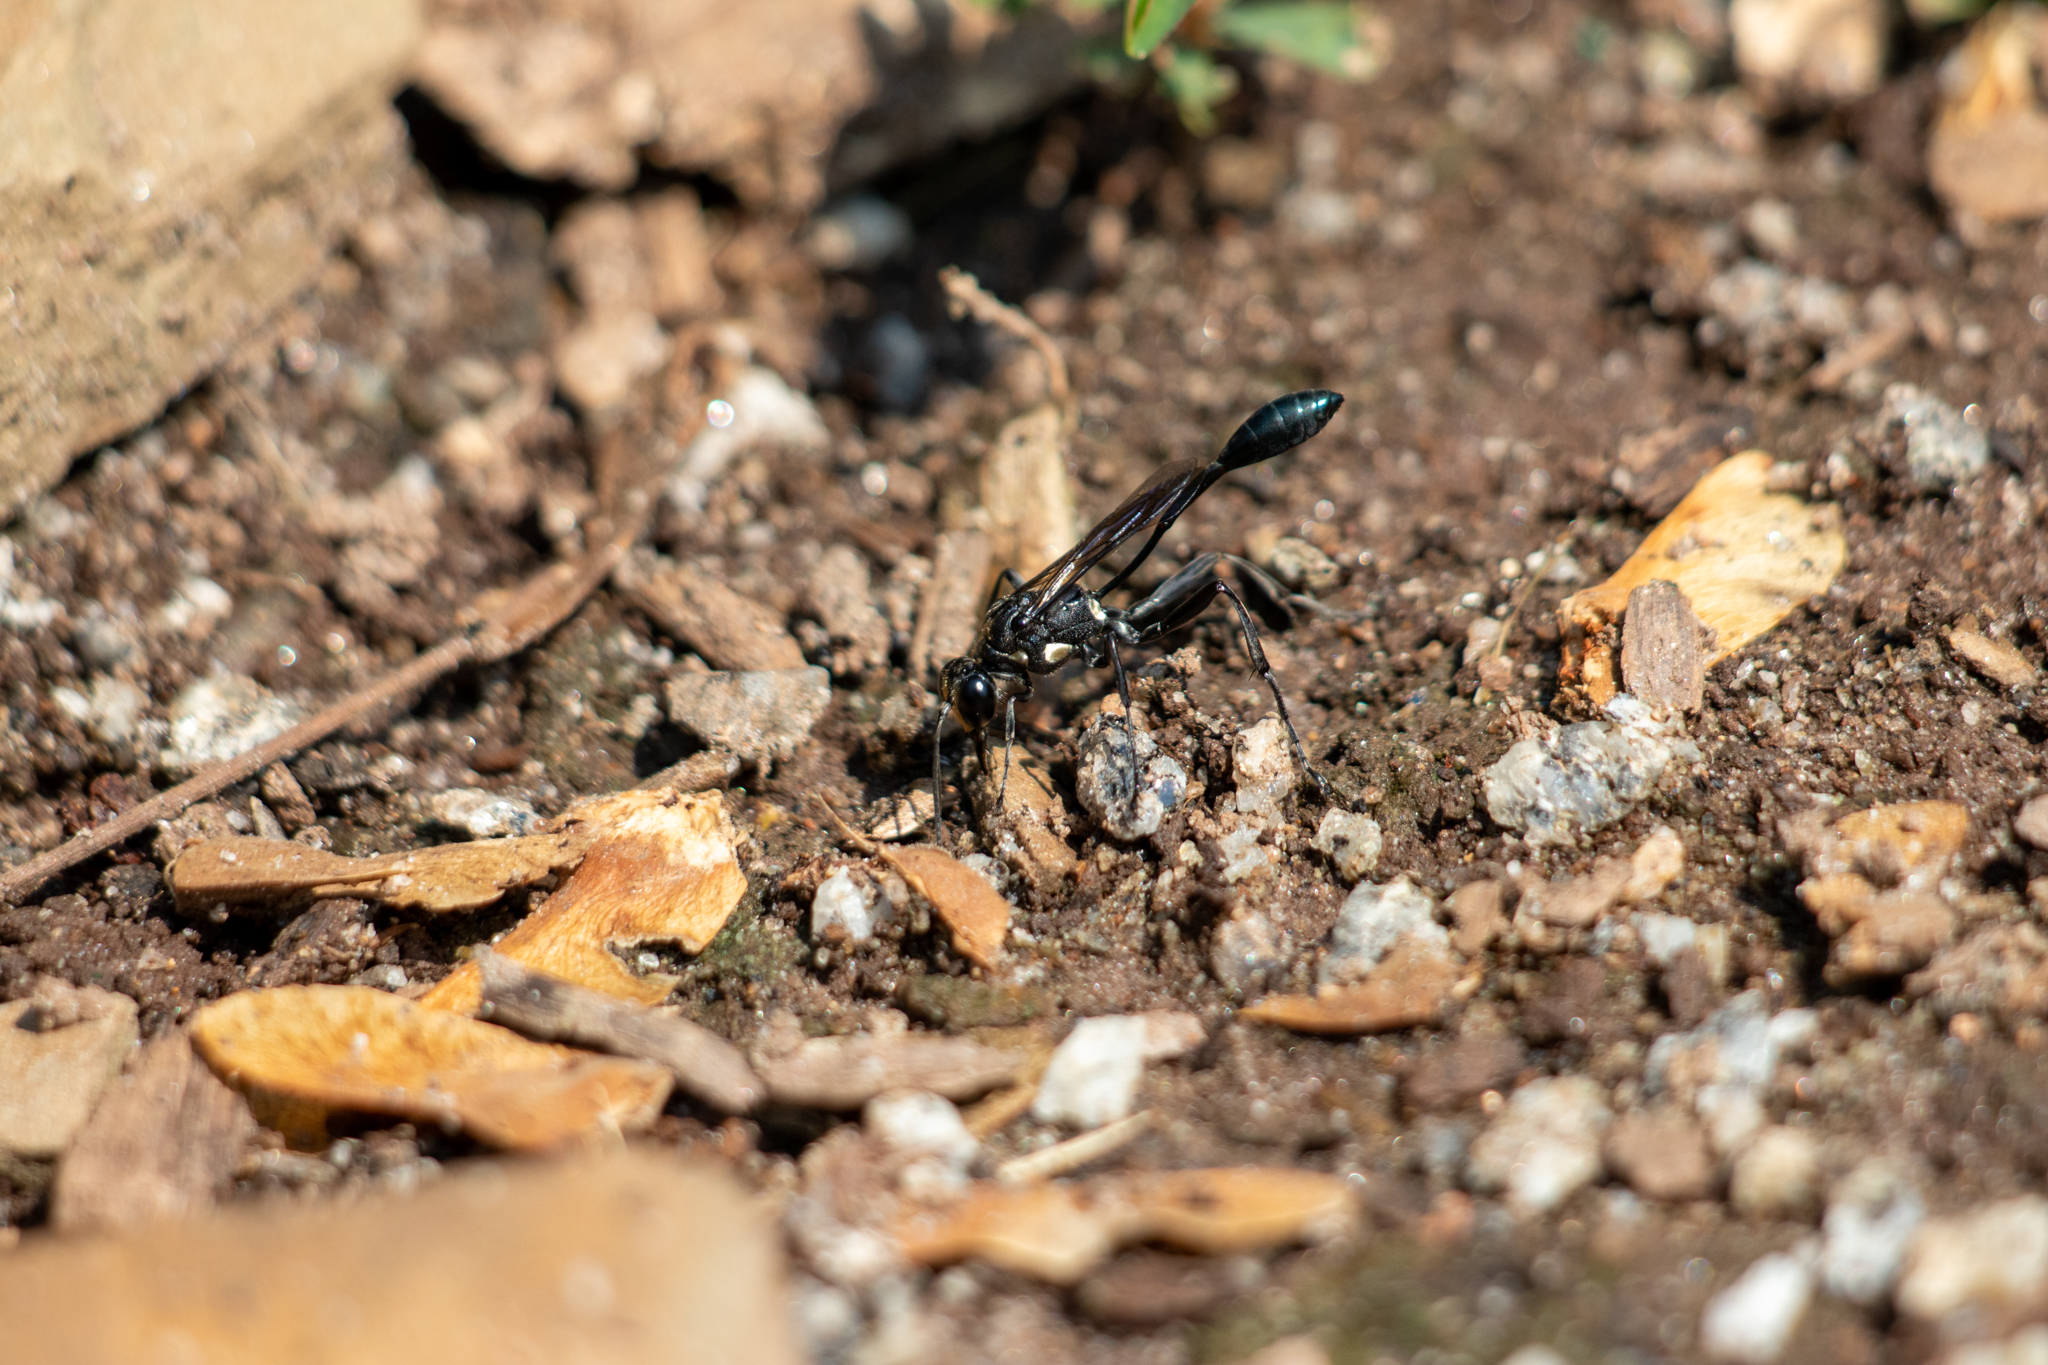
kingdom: Animalia
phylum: Arthropoda
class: Insecta
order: Hymenoptera
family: Sphecidae
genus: Eremnophila
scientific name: Eremnophila aureonotata
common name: Gold-marked thread-waisted wasp
